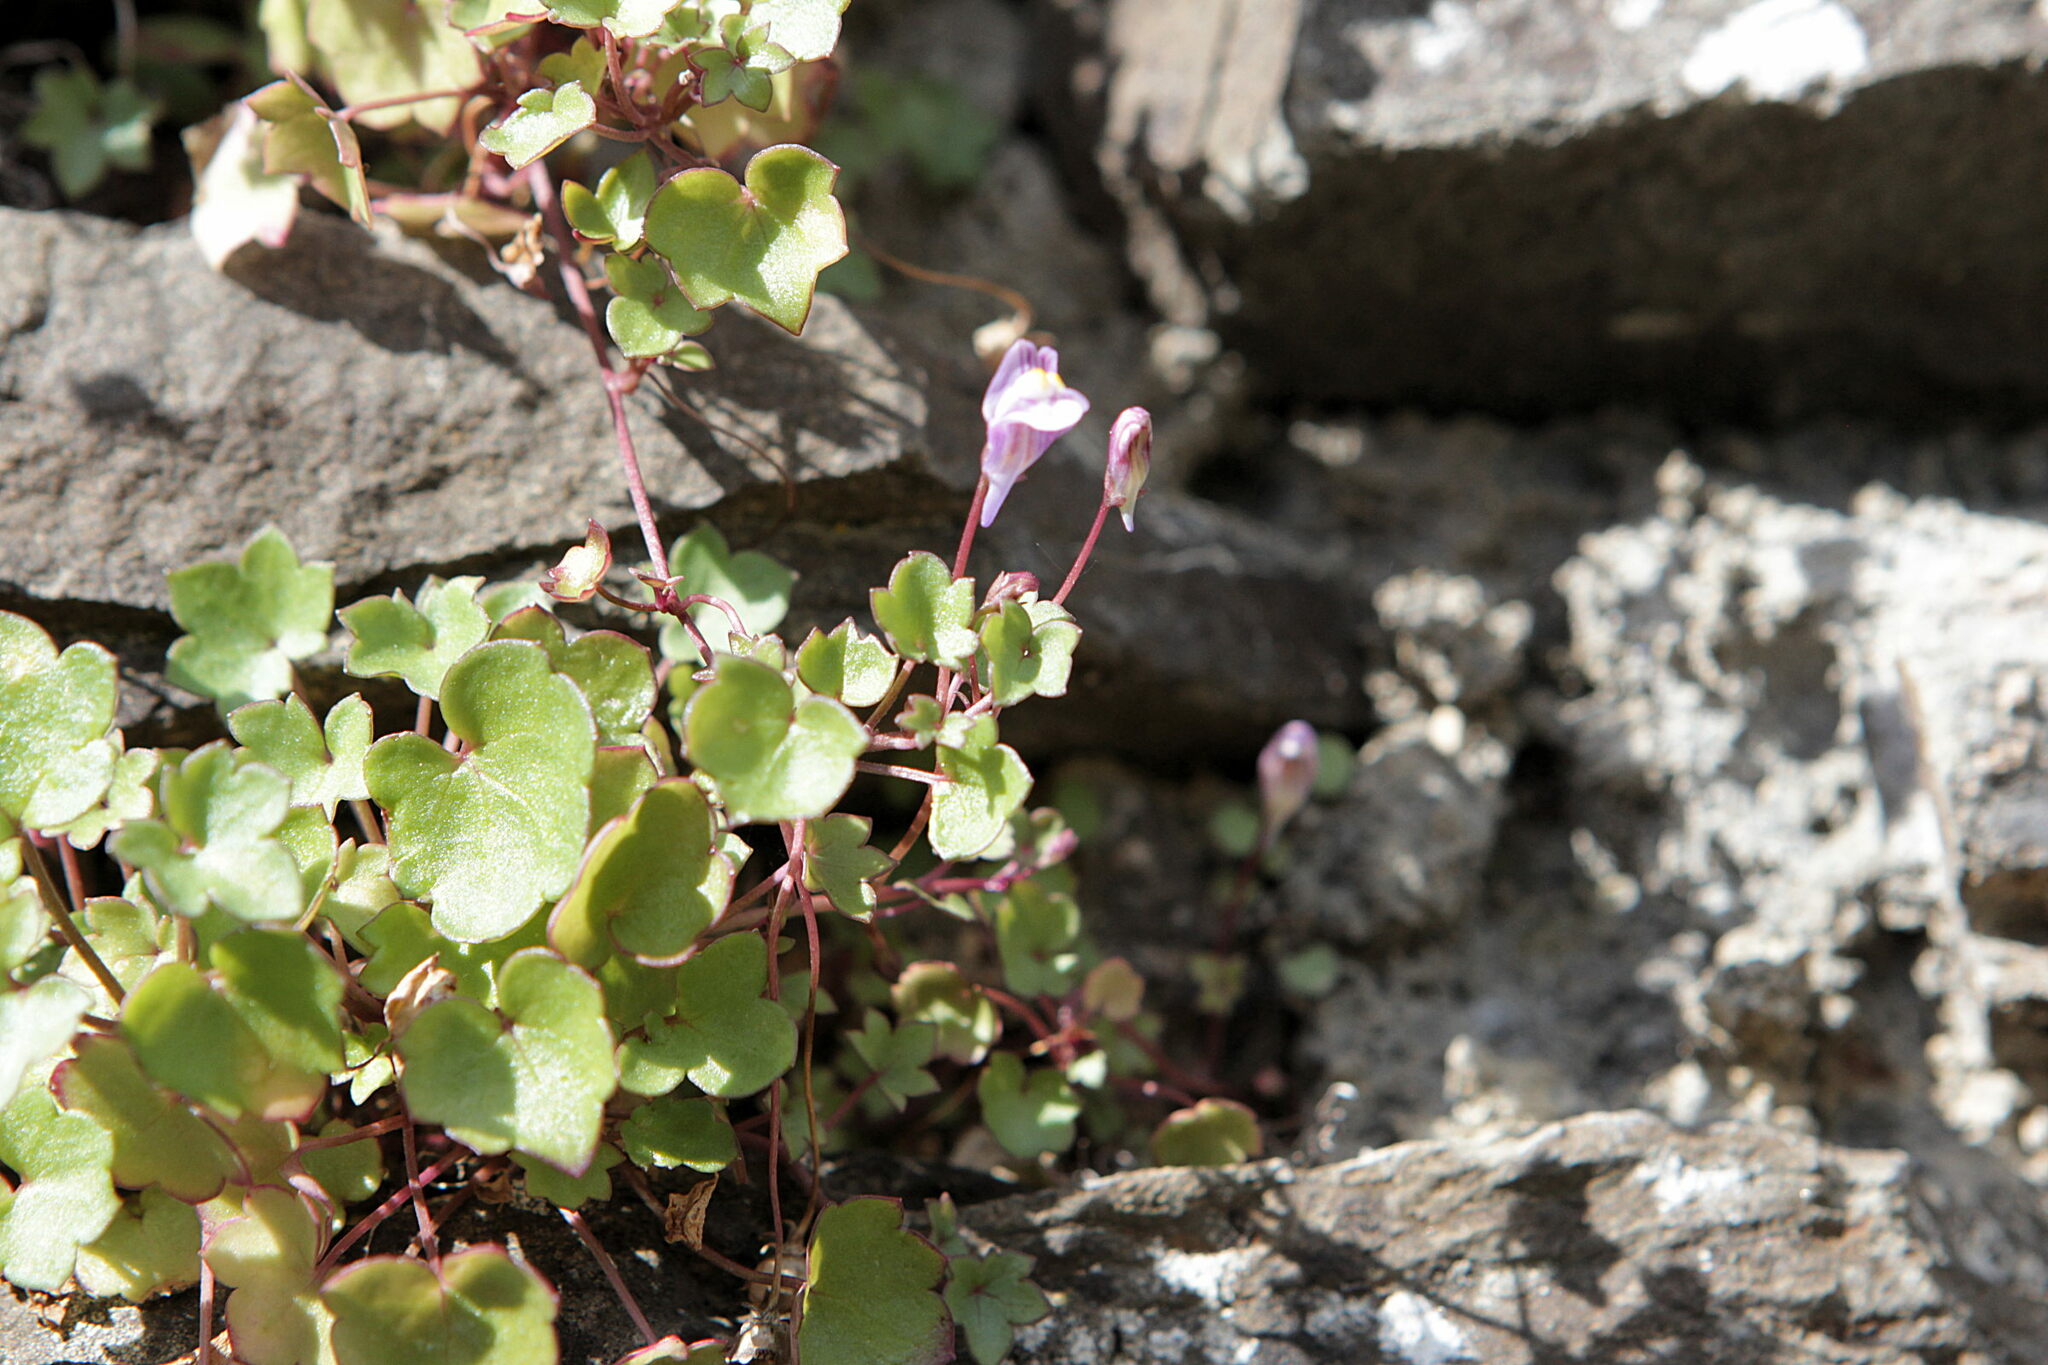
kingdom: Plantae
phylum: Tracheophyta
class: Magnoliopsida
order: Lamiales
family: Plantaginaceae
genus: Cymbalaria
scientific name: Cymbalaria muralis
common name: Ivy-leaved toadflax
